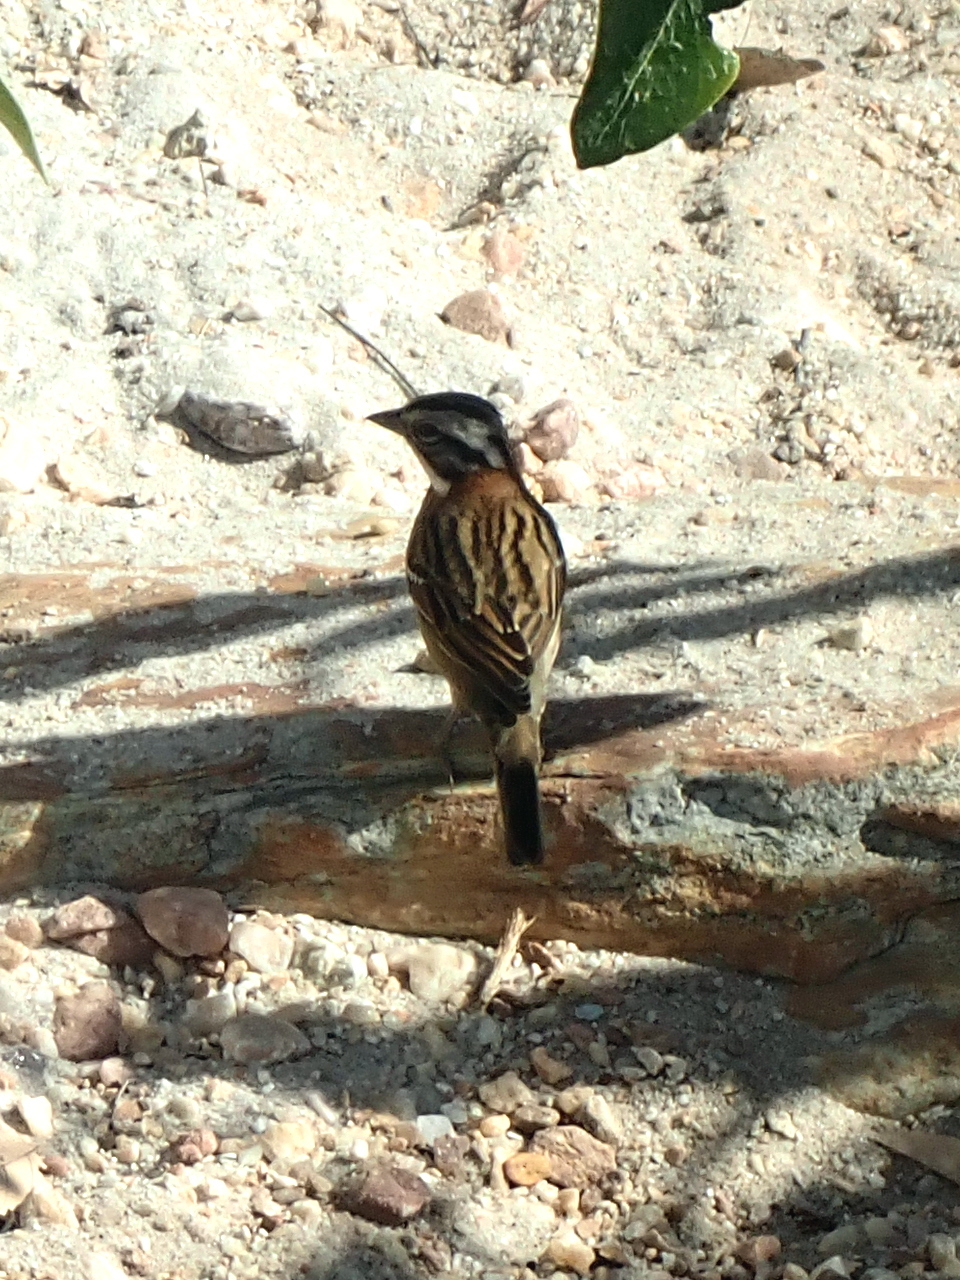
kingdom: Animalia
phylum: Chordata
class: Aves
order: Passeriformes
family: Passerellidae
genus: Zonotrichia
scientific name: Zonotrichia capensis
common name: Rufous-collared sparrow
